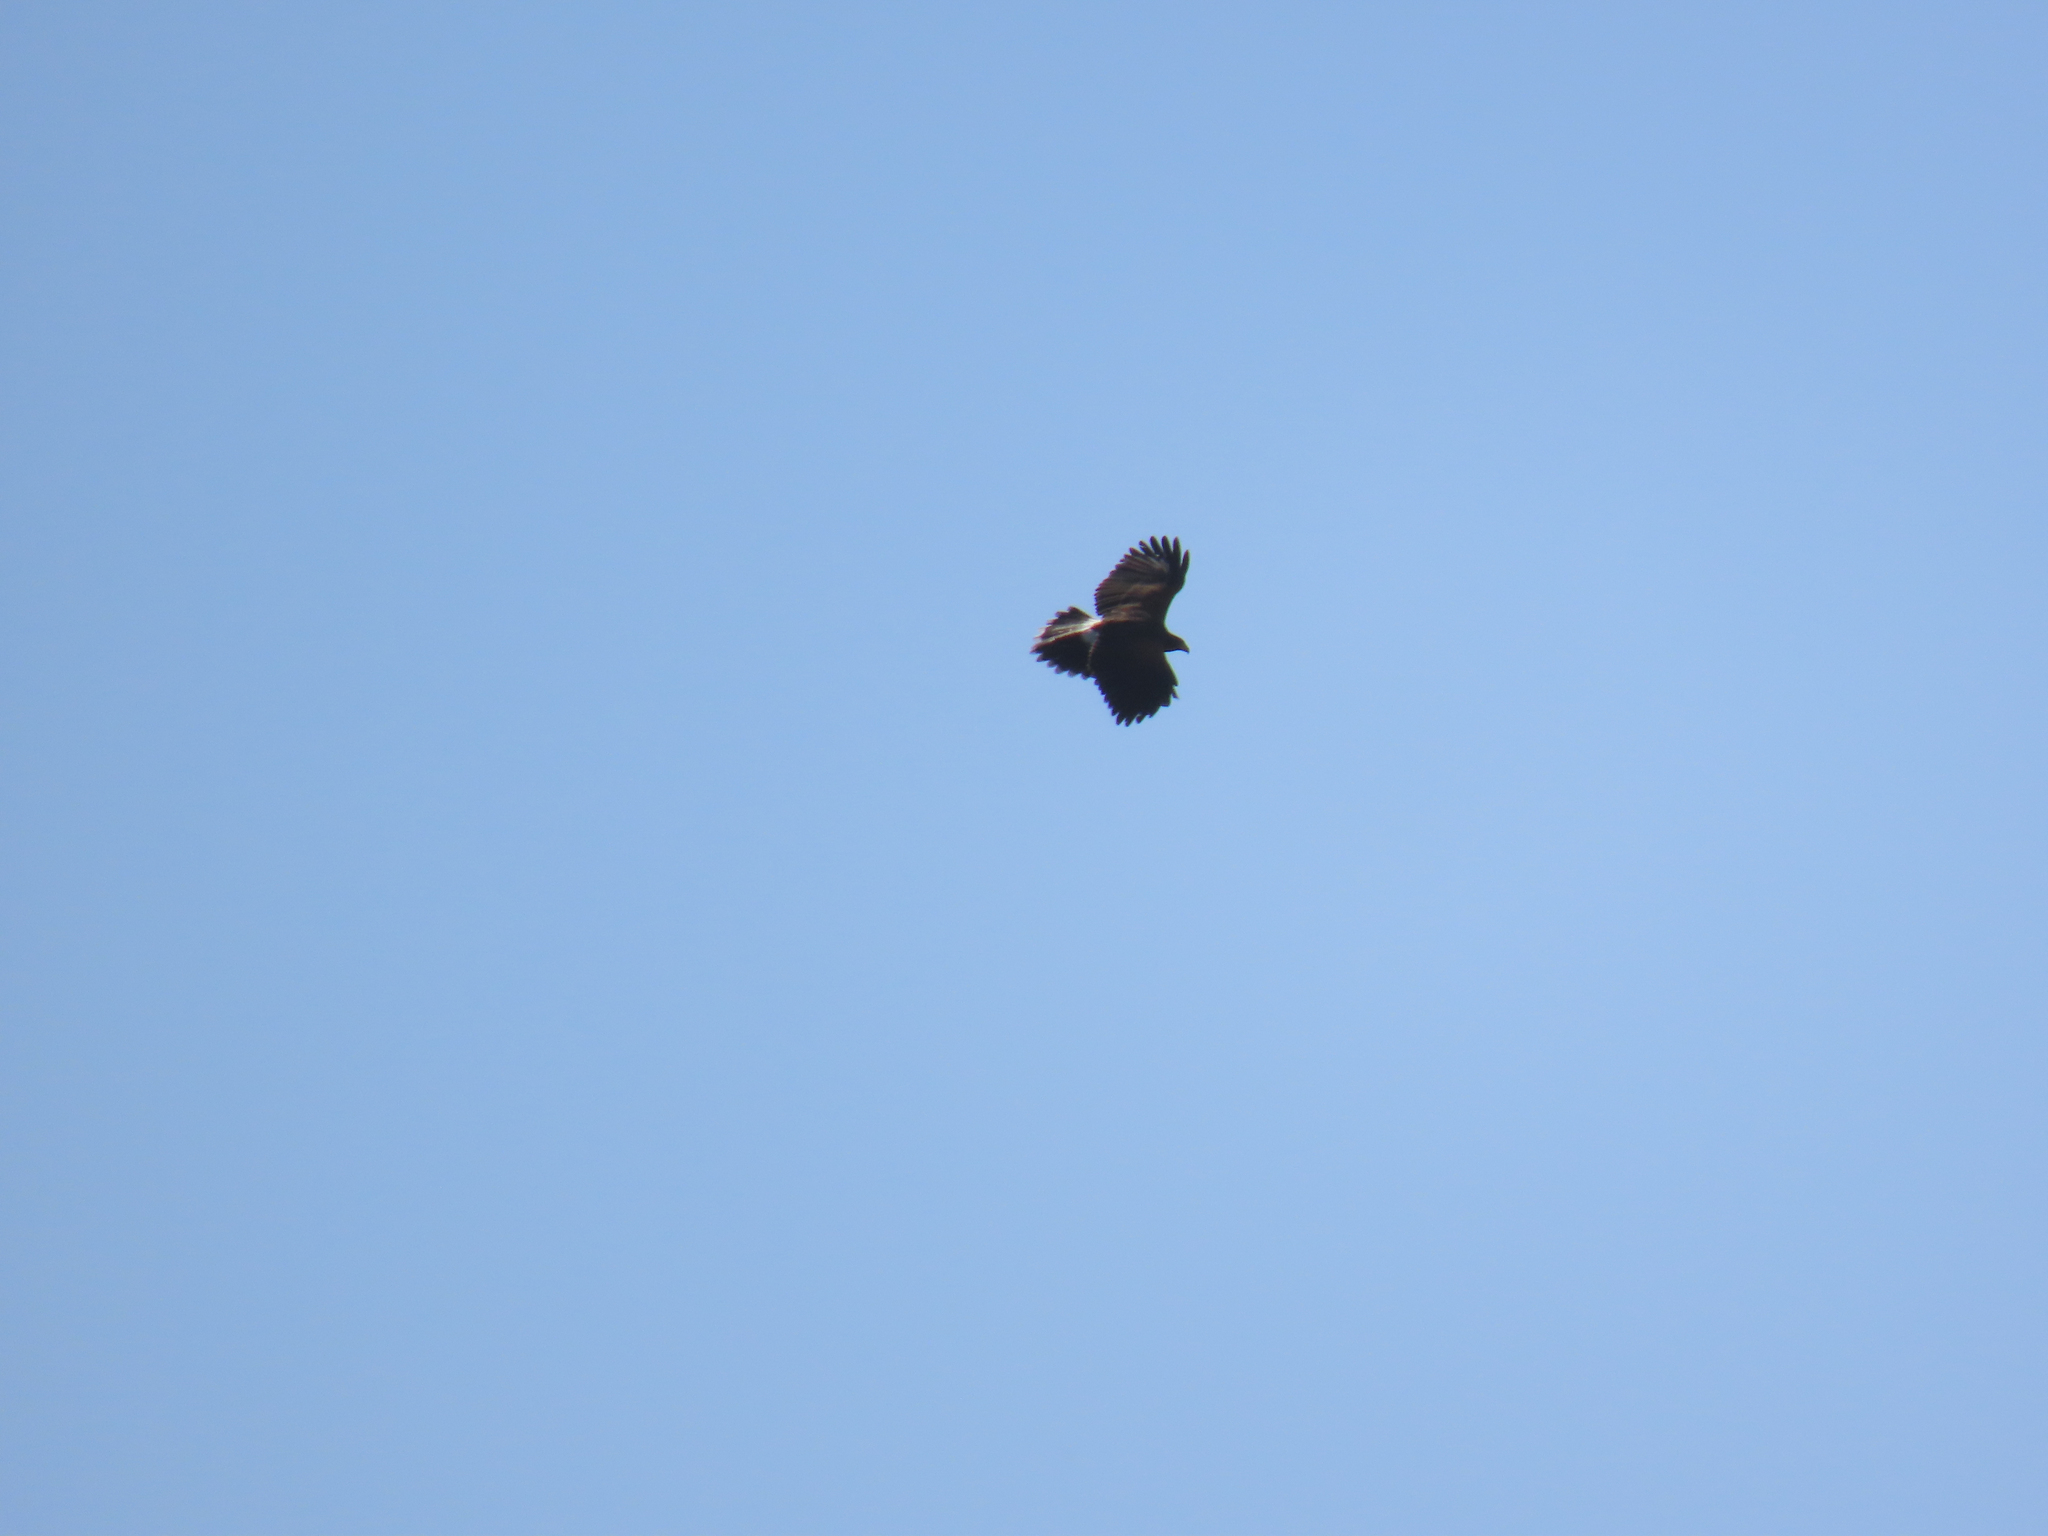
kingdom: Animalia
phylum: Chordata
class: Aves
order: Accipitriformes
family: Accipitridae
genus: Parabuteo
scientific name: Parabuteo unicinctus
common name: Harris's hawk
